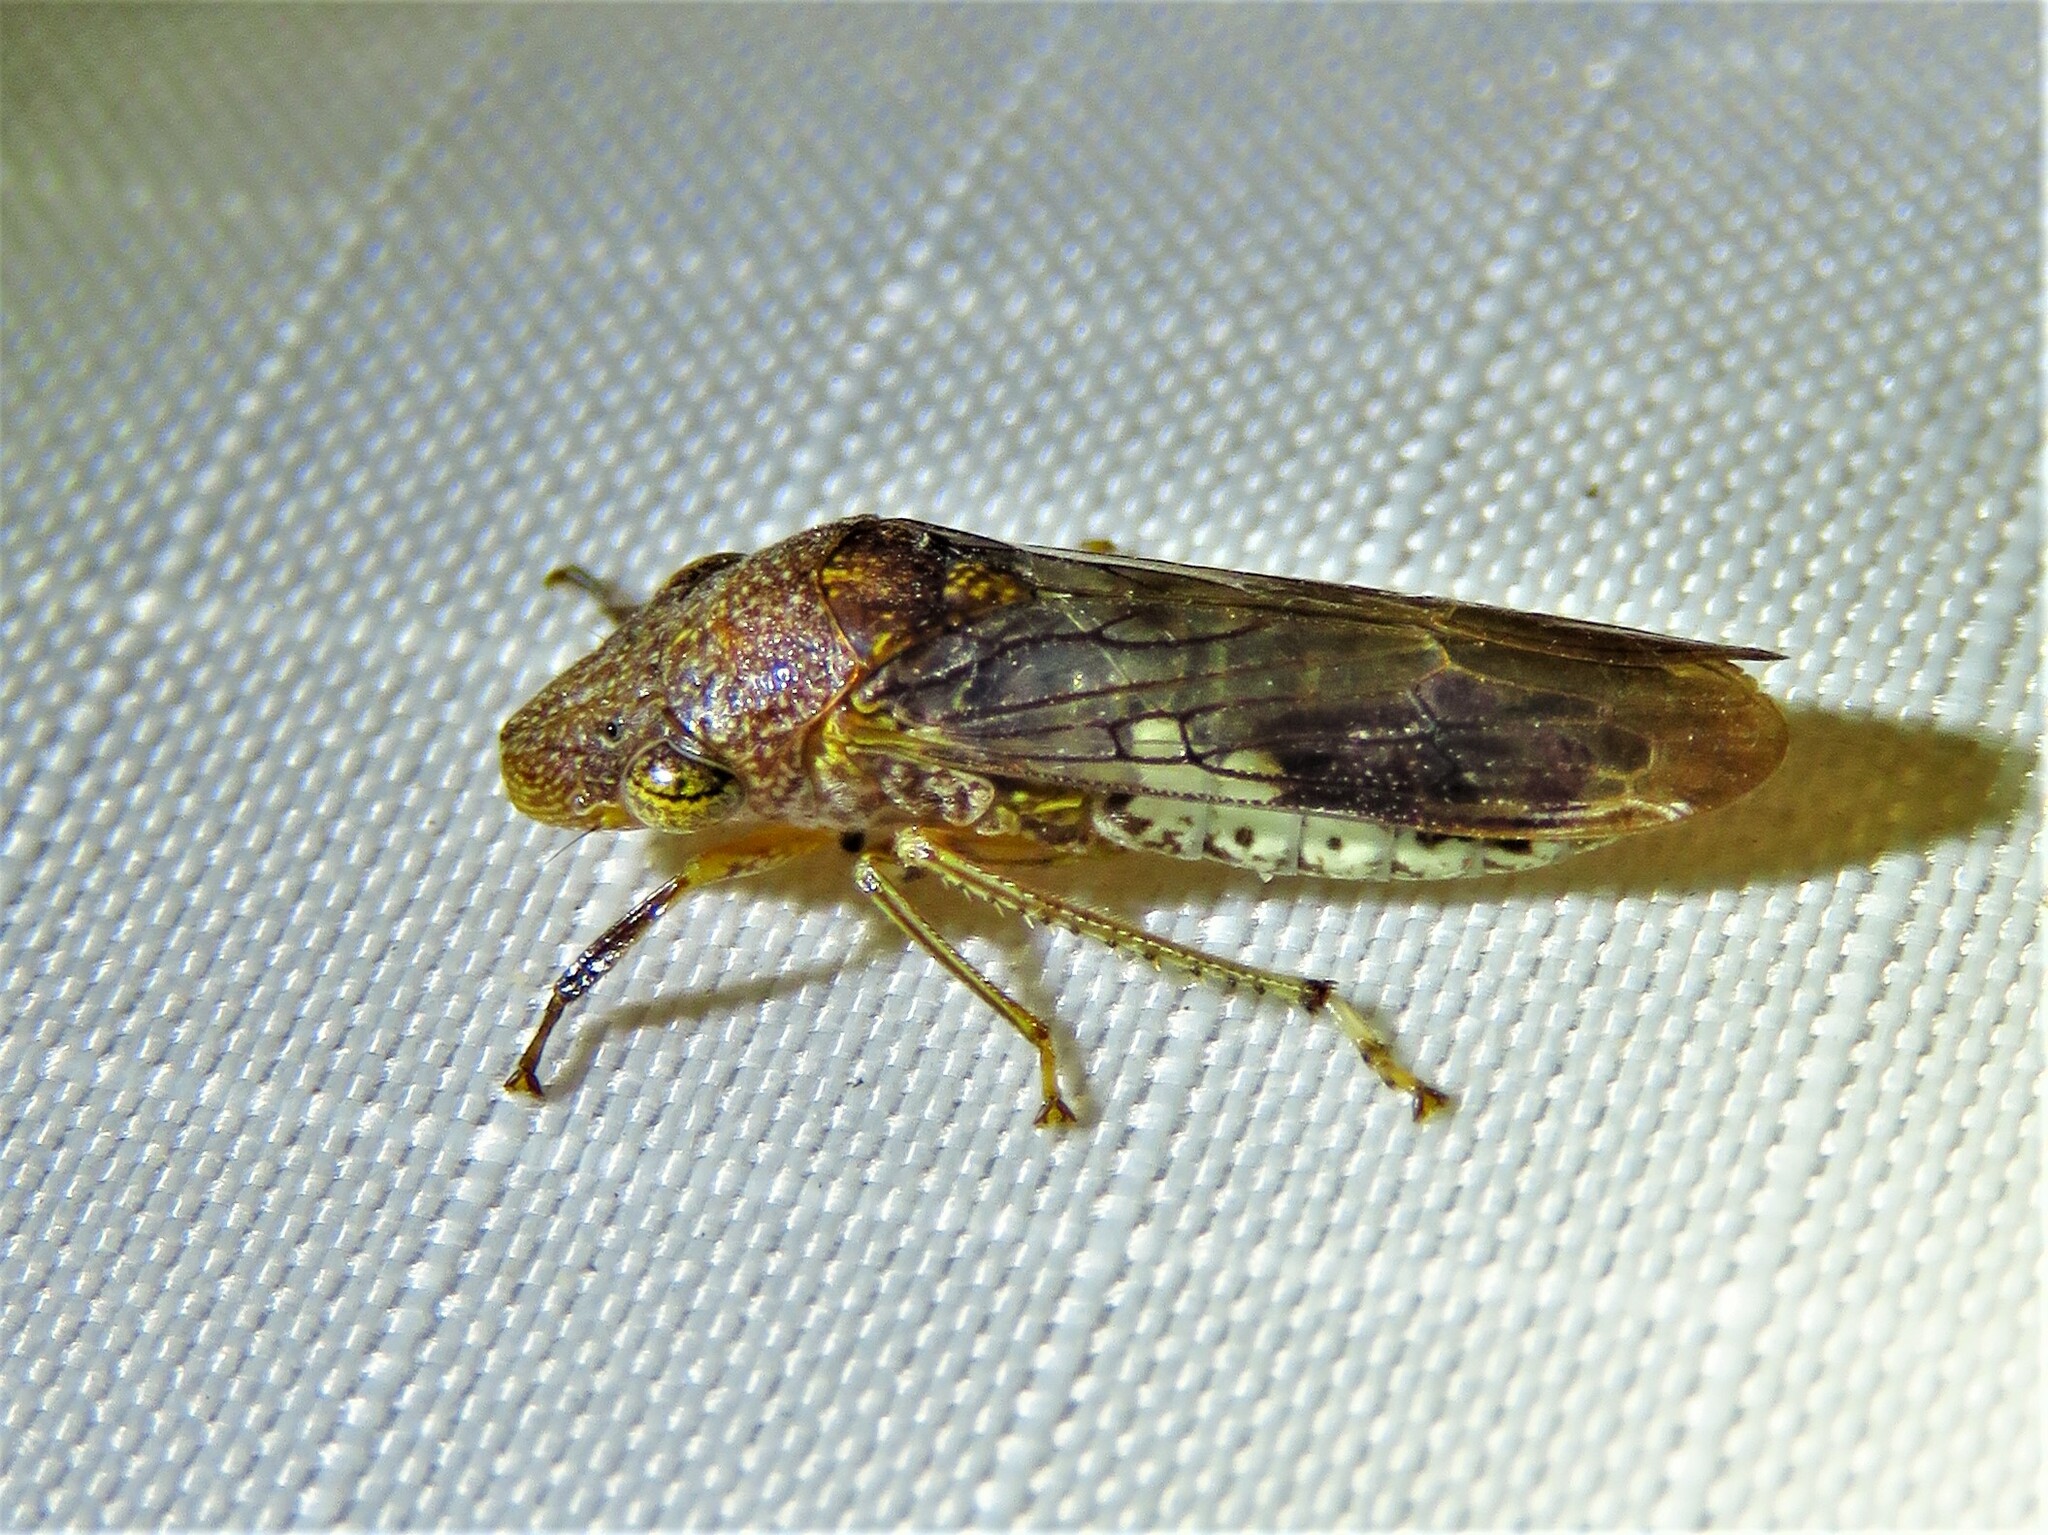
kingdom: Animalia
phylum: Arthropoda
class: Insecta
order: Hemiptera
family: Cicadellidae
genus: Homalodisca
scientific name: Homalodisca vitripennis
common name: Glassy-winged sharpshooter
